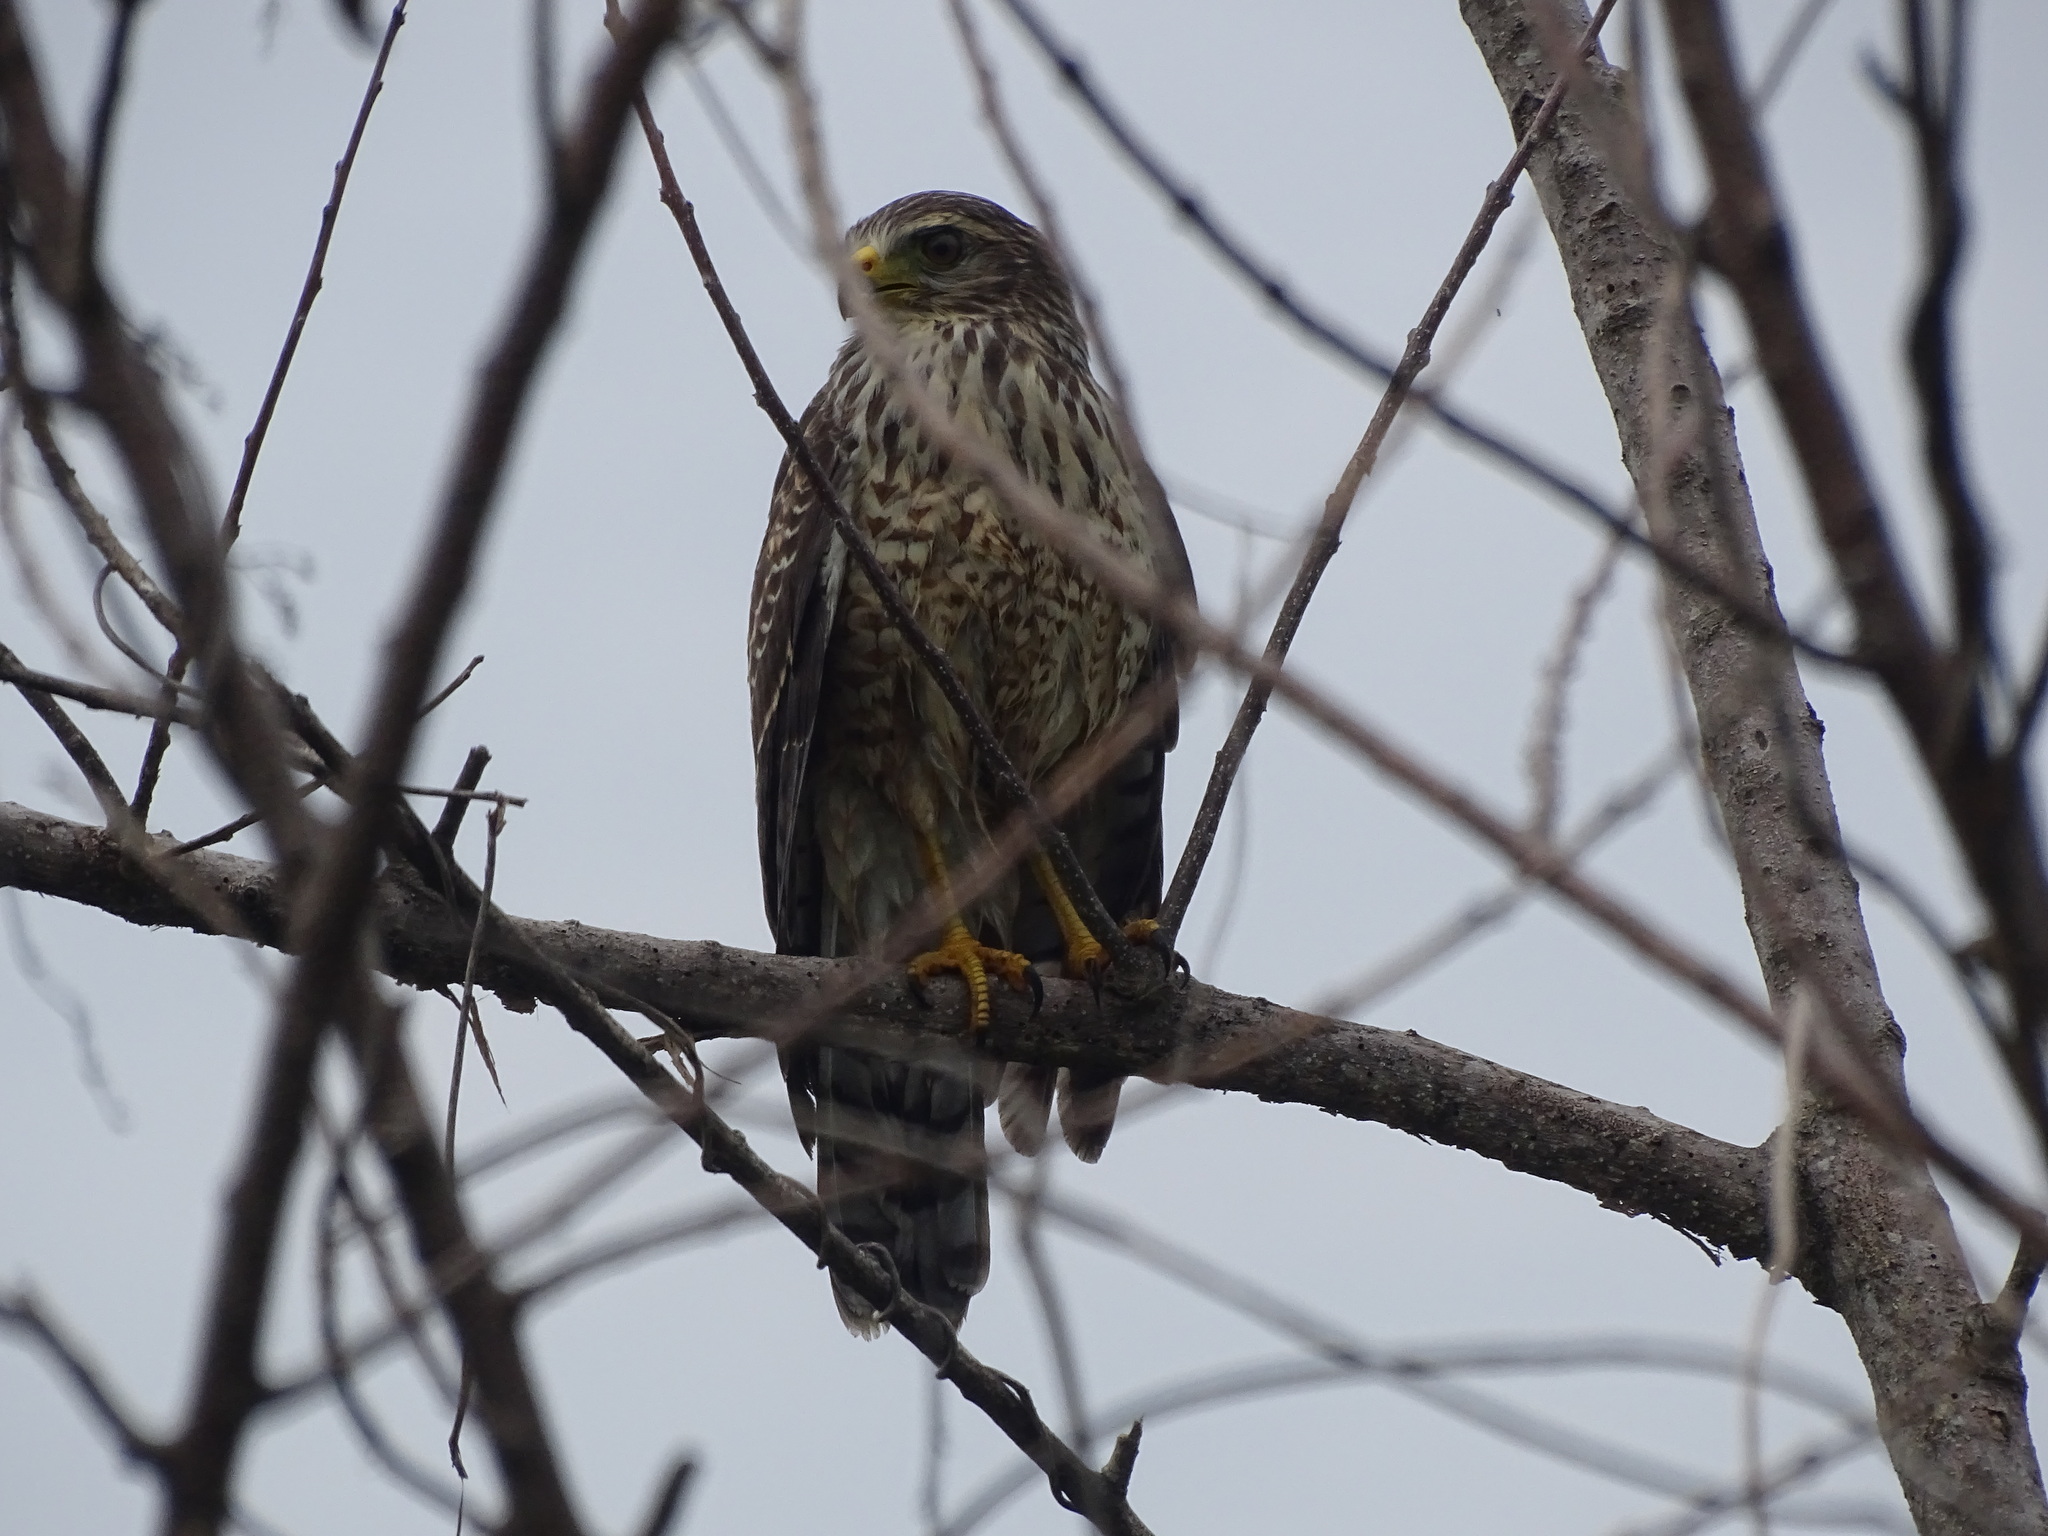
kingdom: Animalia
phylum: Chordata
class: Aves
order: Accipitriformes
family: Accipitridae
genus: Rupornis
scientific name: Rupornis magnirostris
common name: Roadside hawk
